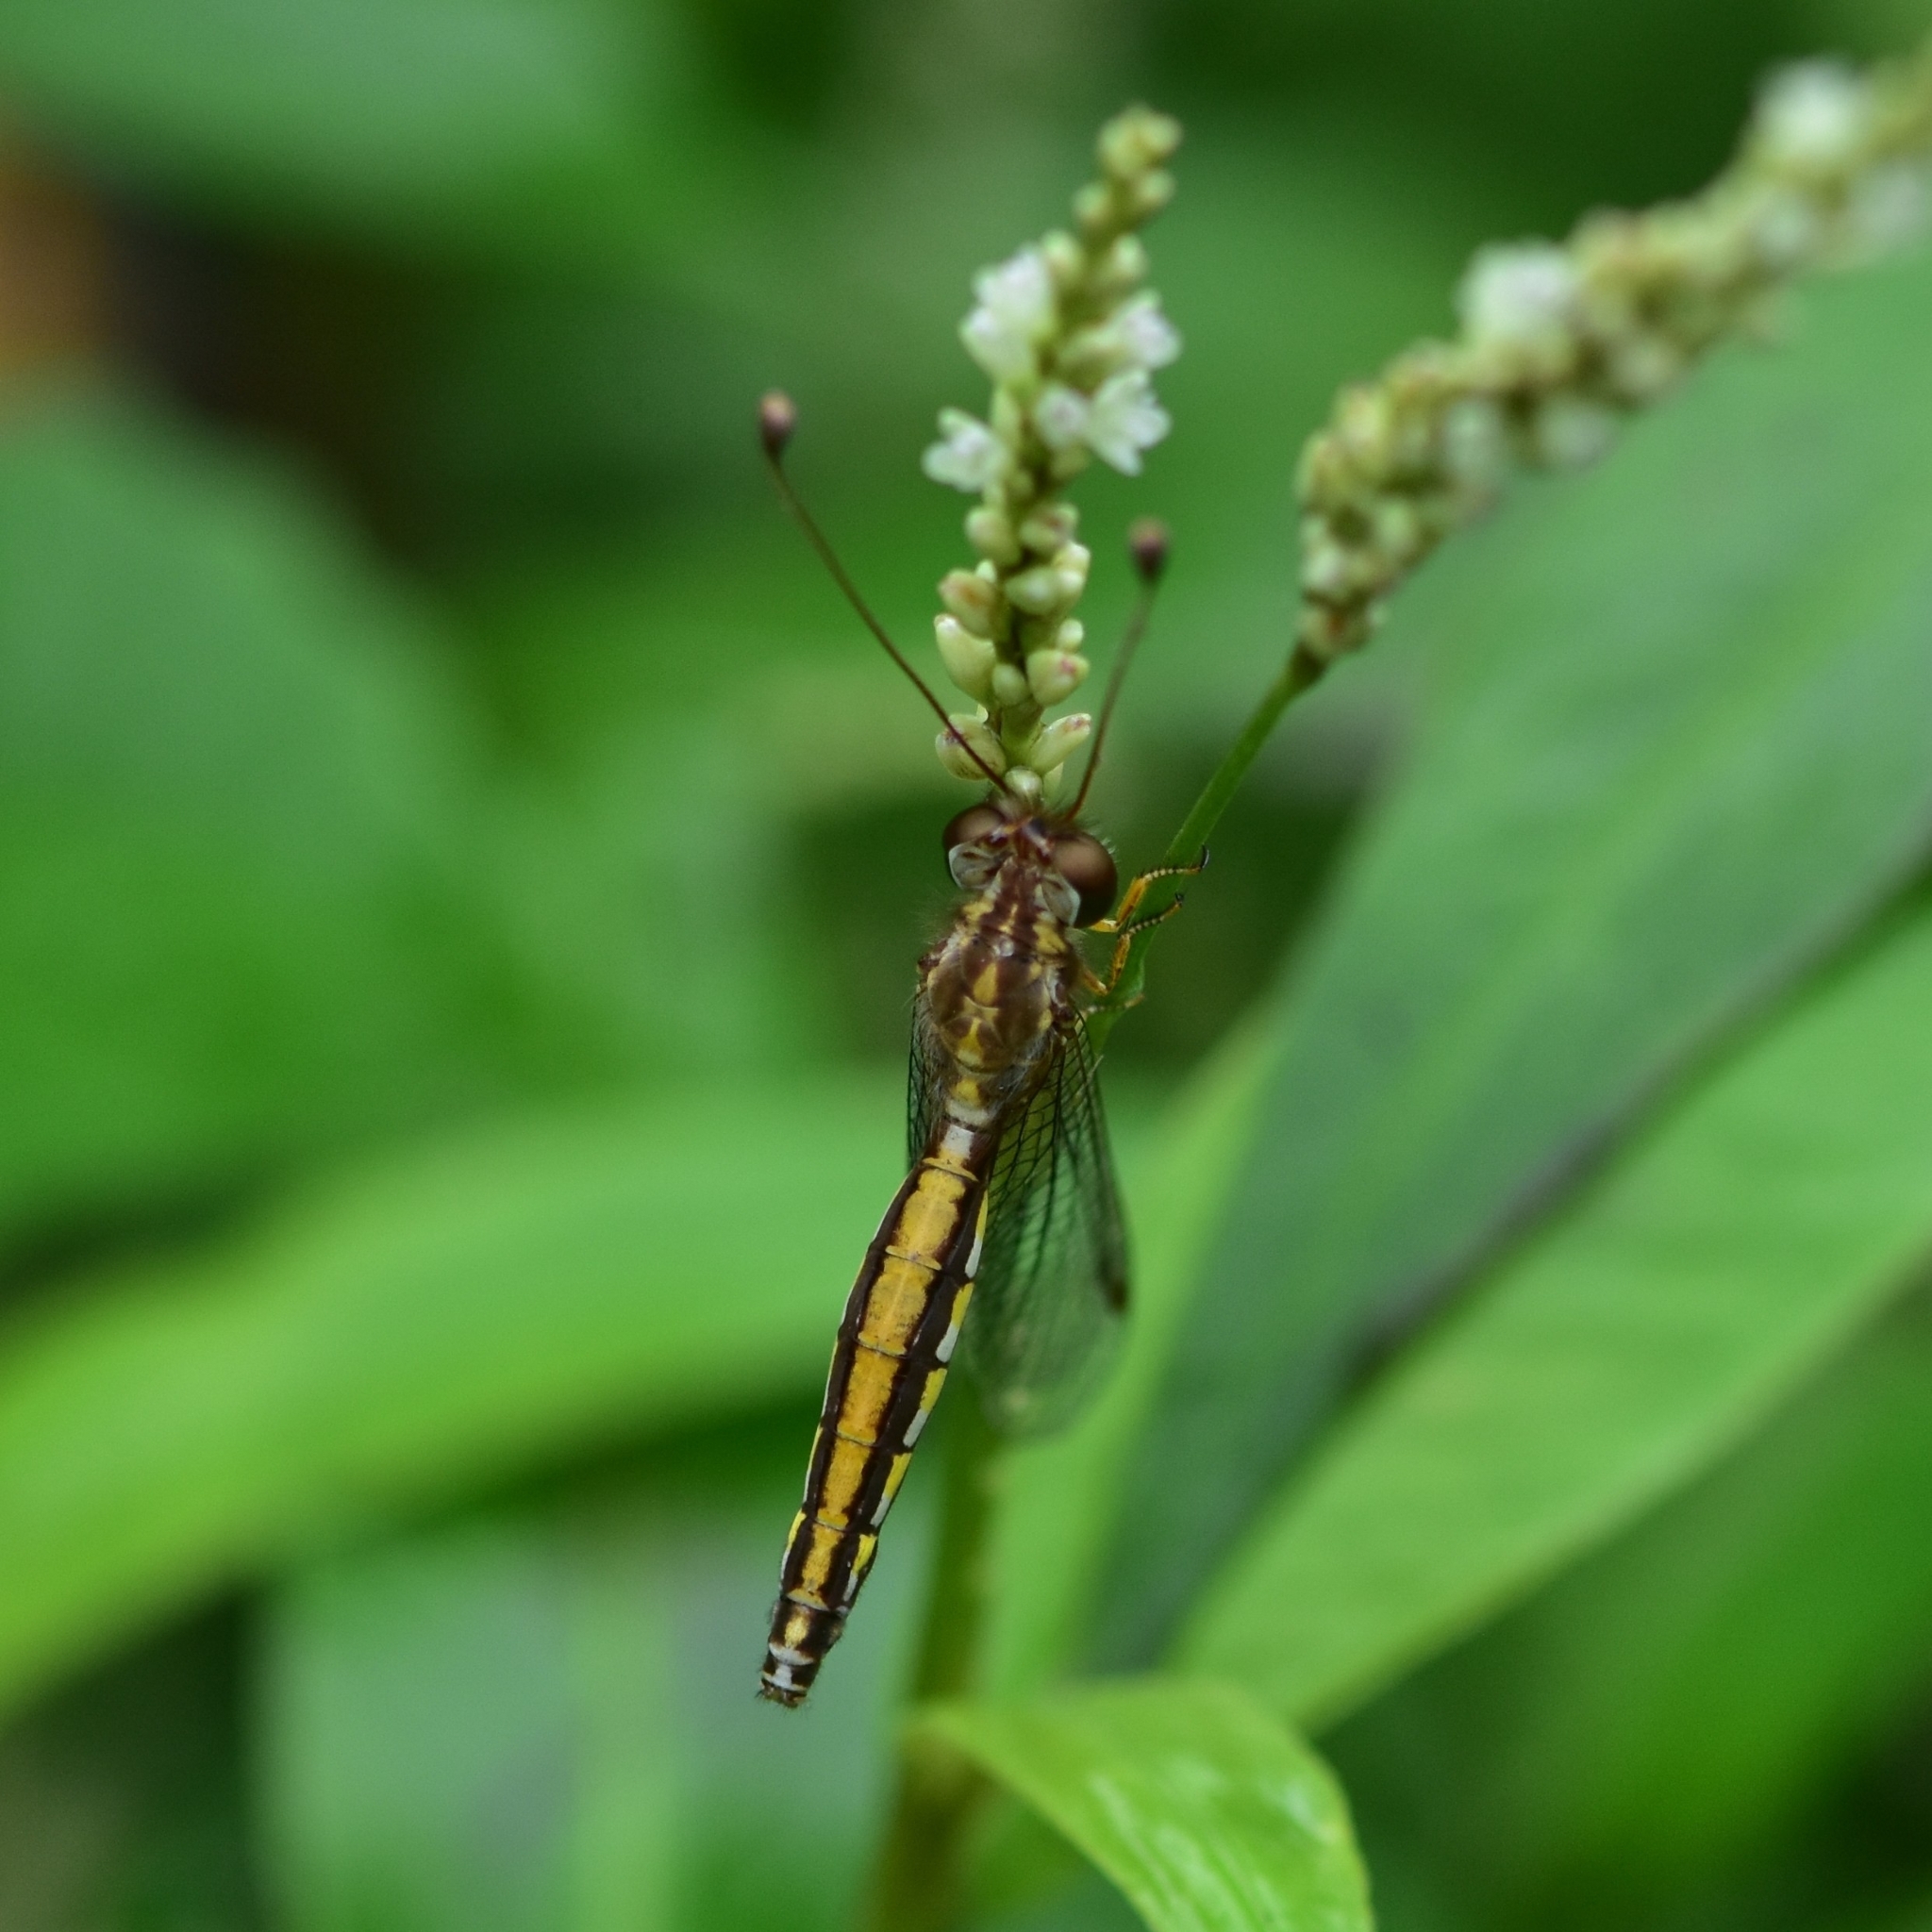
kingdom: Animalia
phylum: Arthropoda
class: Insecta
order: Neuroptera
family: Ascalaphidae
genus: Suhpalacsa
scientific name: Suhpalacsa flavipes
